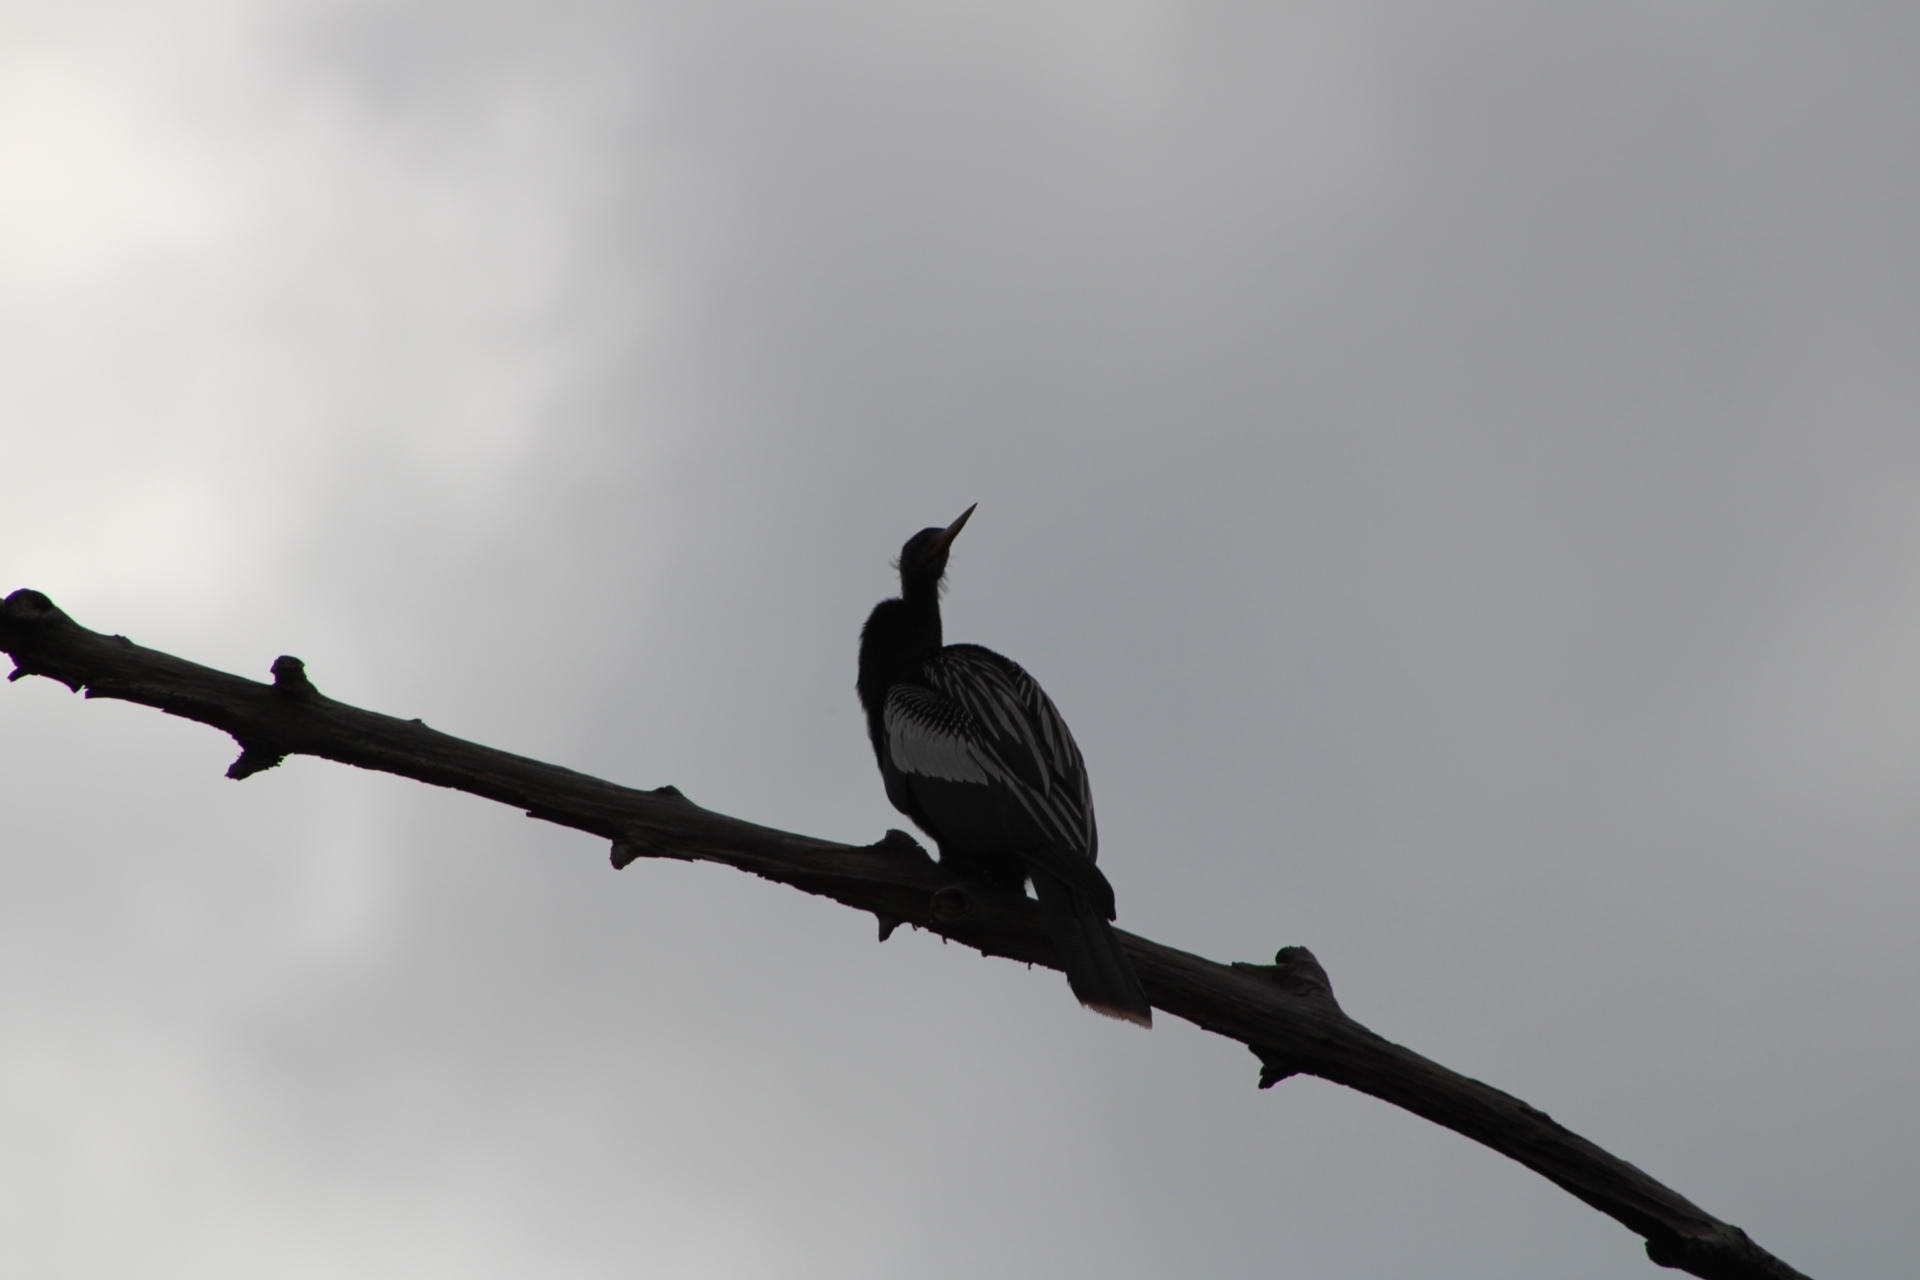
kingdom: Animalia
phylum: Chordata
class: Aves
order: Suliformes
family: Anhingidae
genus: Anhinga
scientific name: Anhinga anhinga
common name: Anhinga
